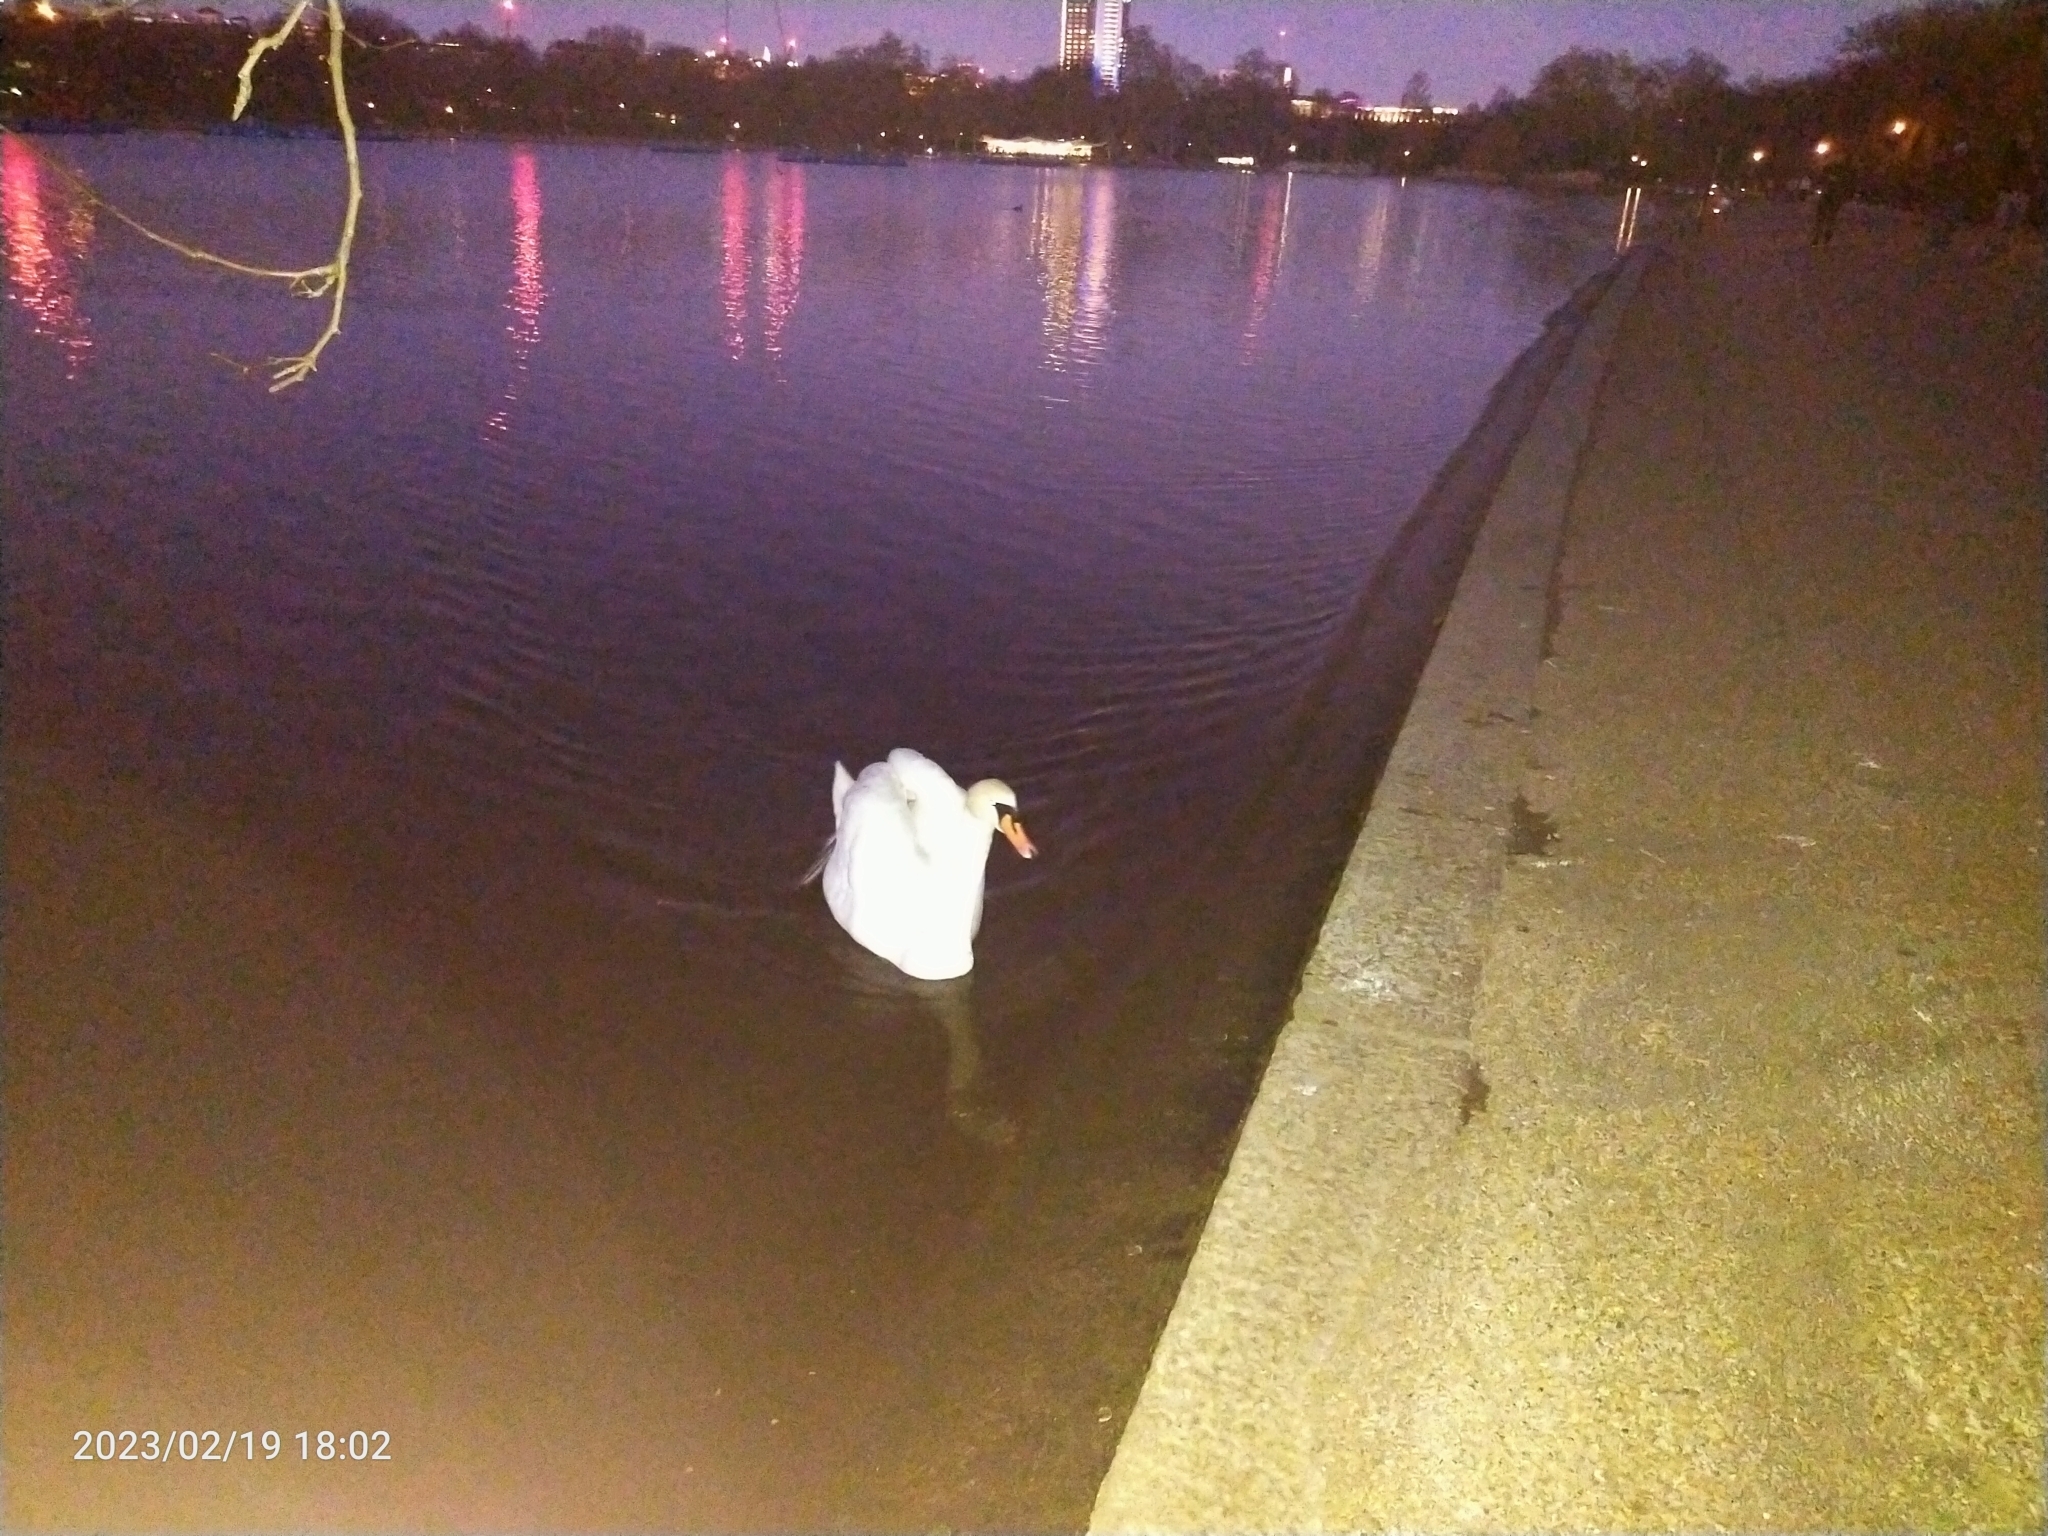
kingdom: Animalia
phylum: Chordata
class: Aves
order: Anseriformes
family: Anatidae
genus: Cygnus
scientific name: Cygnus olor
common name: Mute swan
